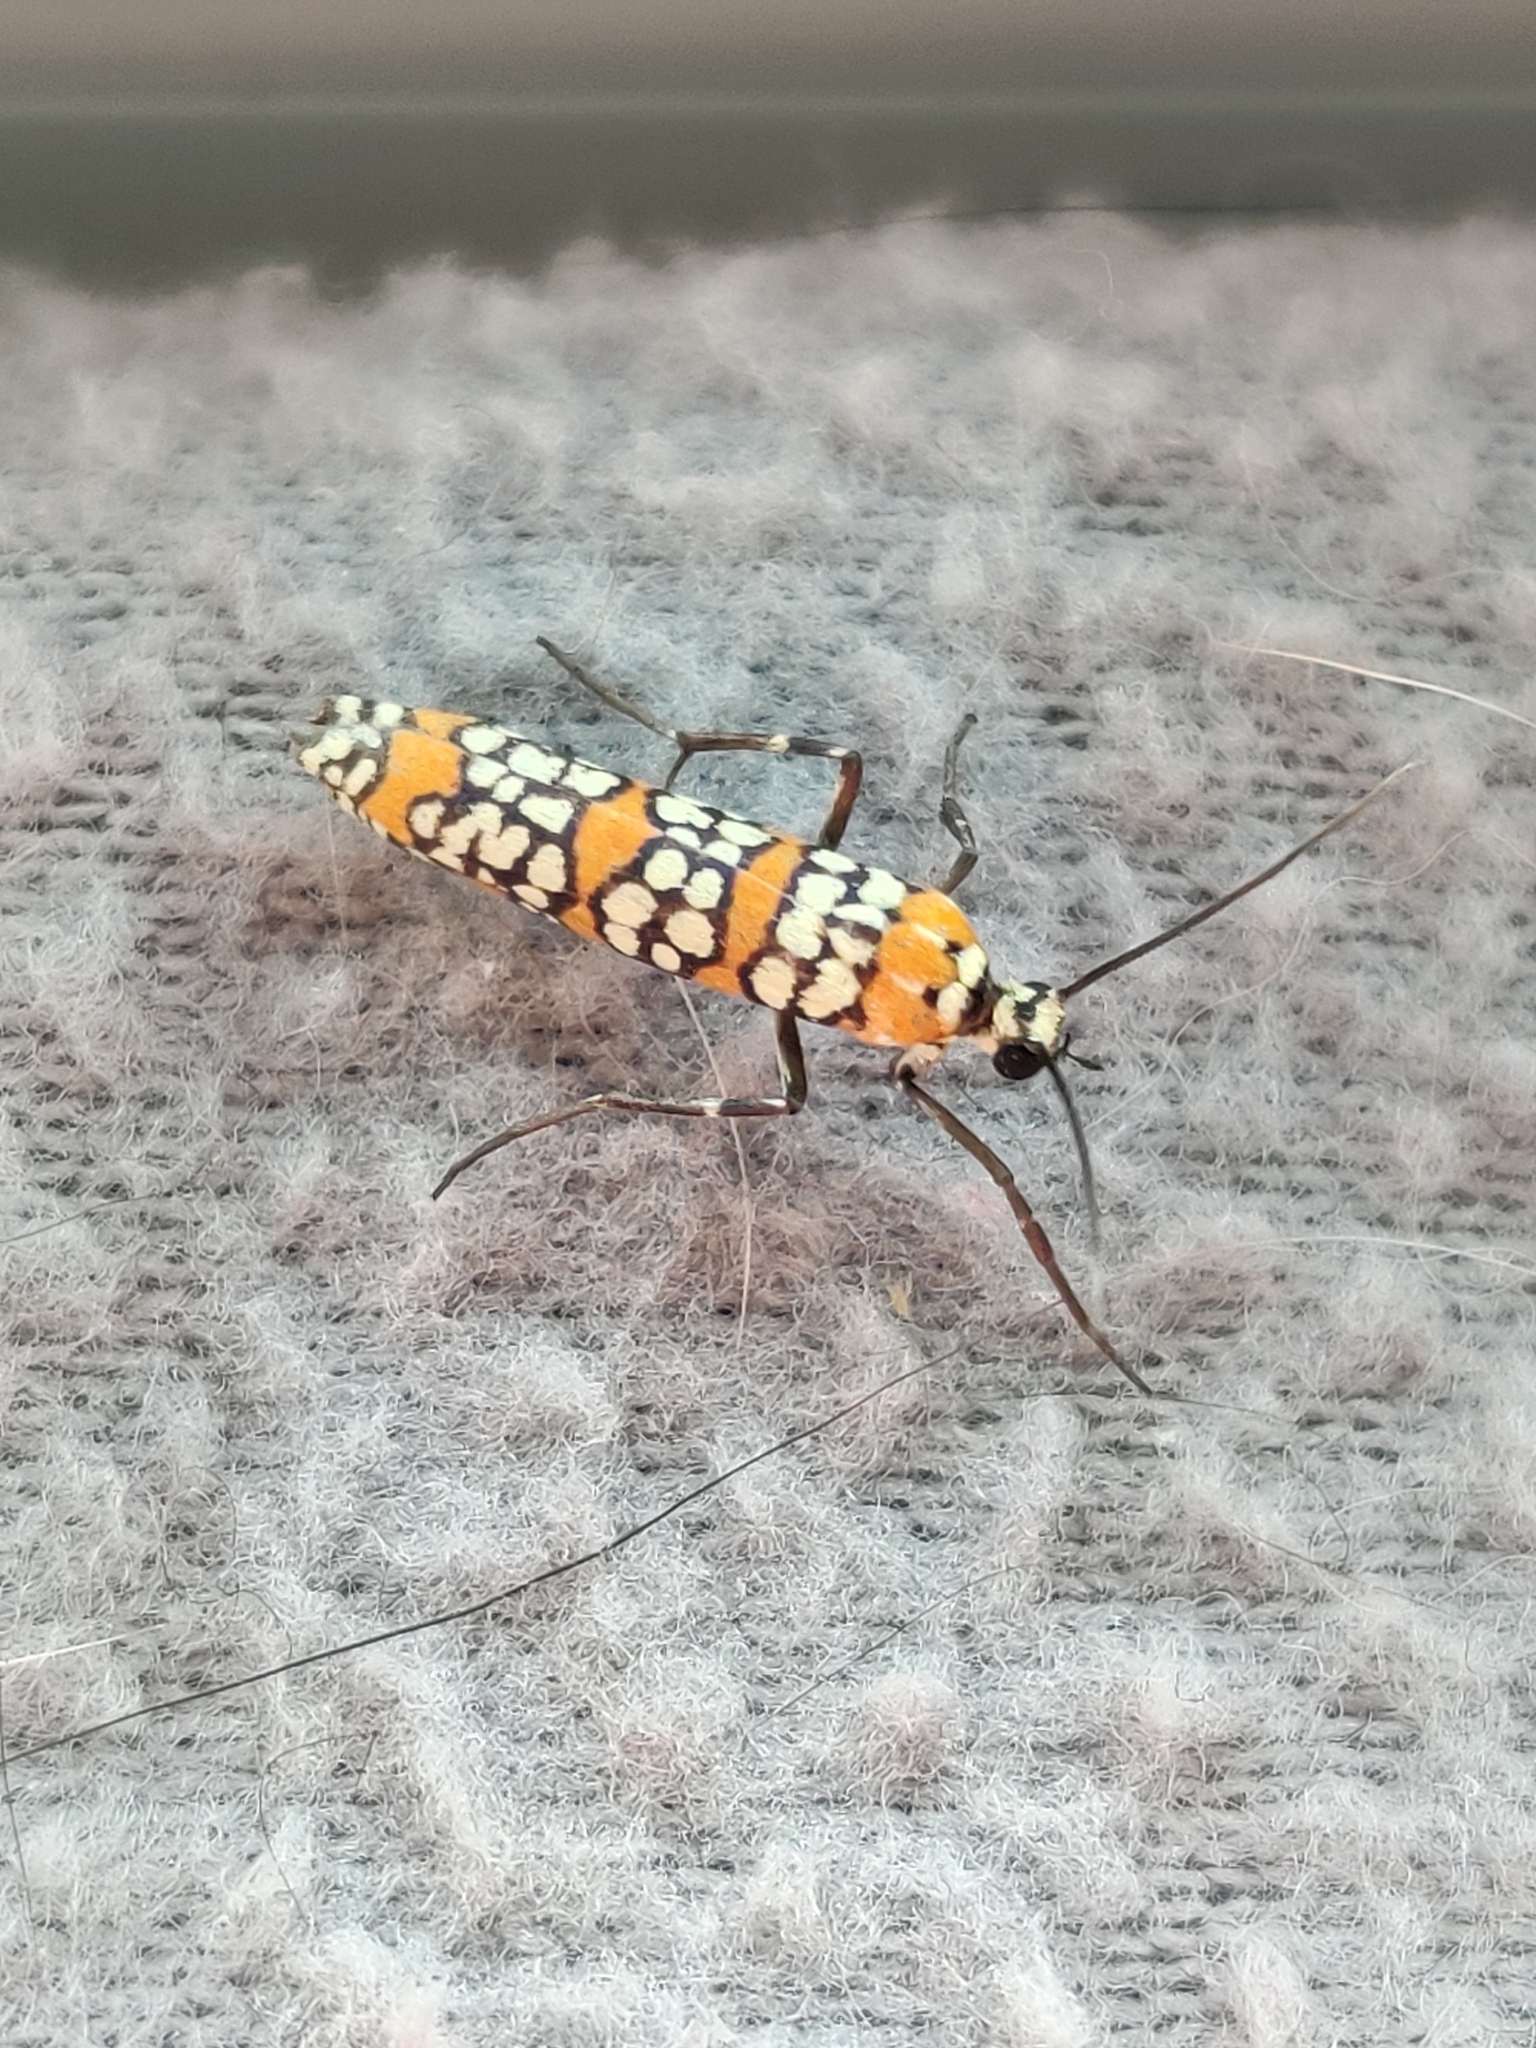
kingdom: Animalia
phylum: Arthropoda
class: Insecta
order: Lepidoptera
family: Attevidae
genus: Atteva
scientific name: Atteva punctella
